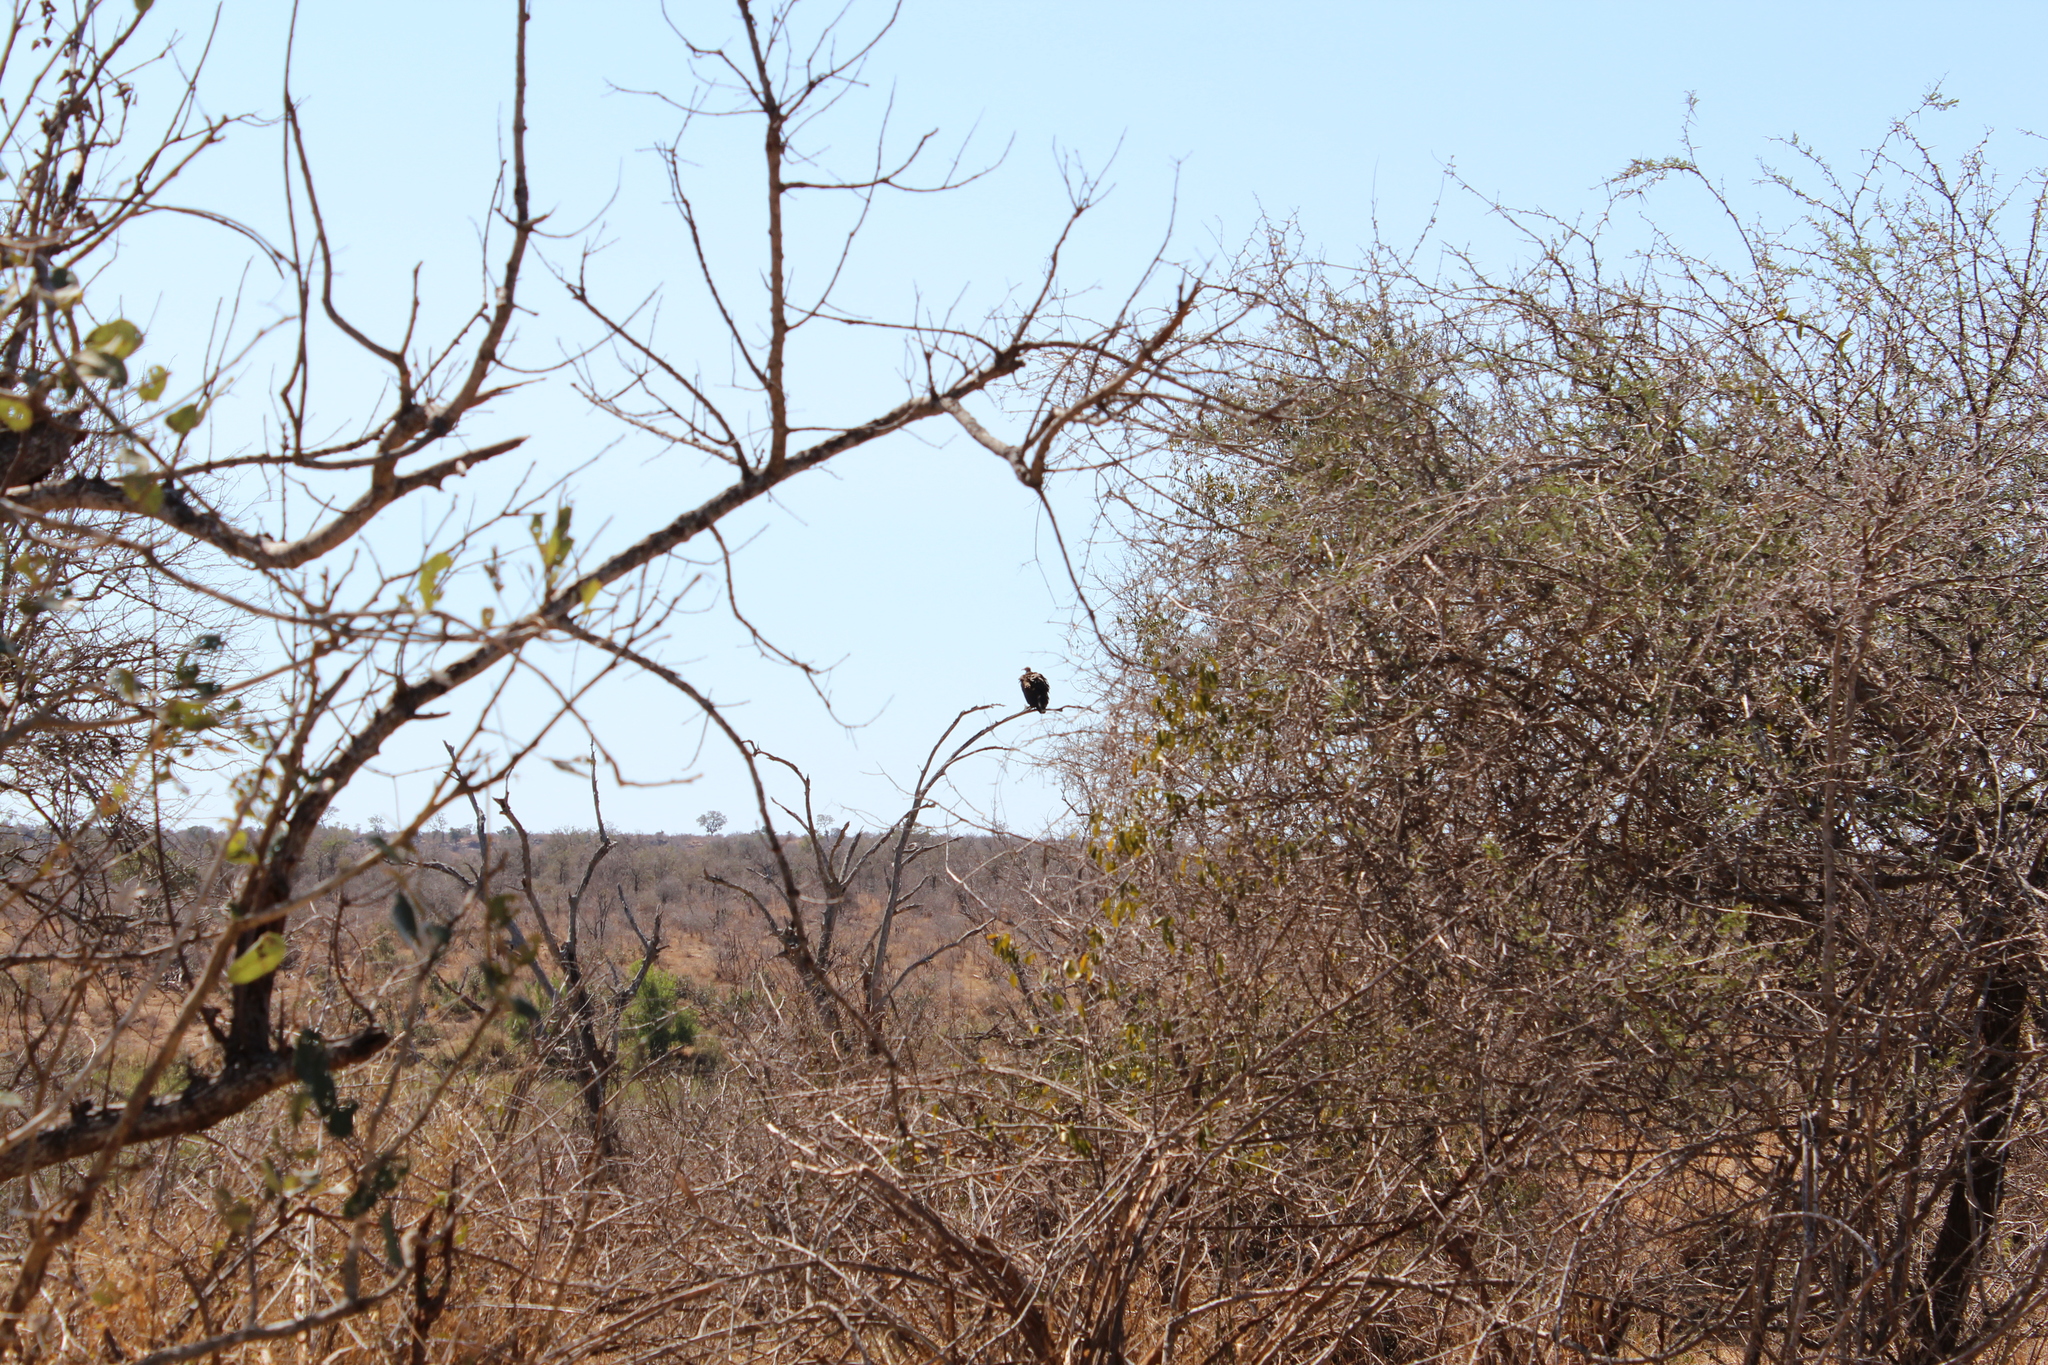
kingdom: Animalia
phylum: Chordata
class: Aves
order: Accipitriformes
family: Accipitridae
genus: Necrosyrtes
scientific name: Necrosyrtes monachus
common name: Hooded vulture
